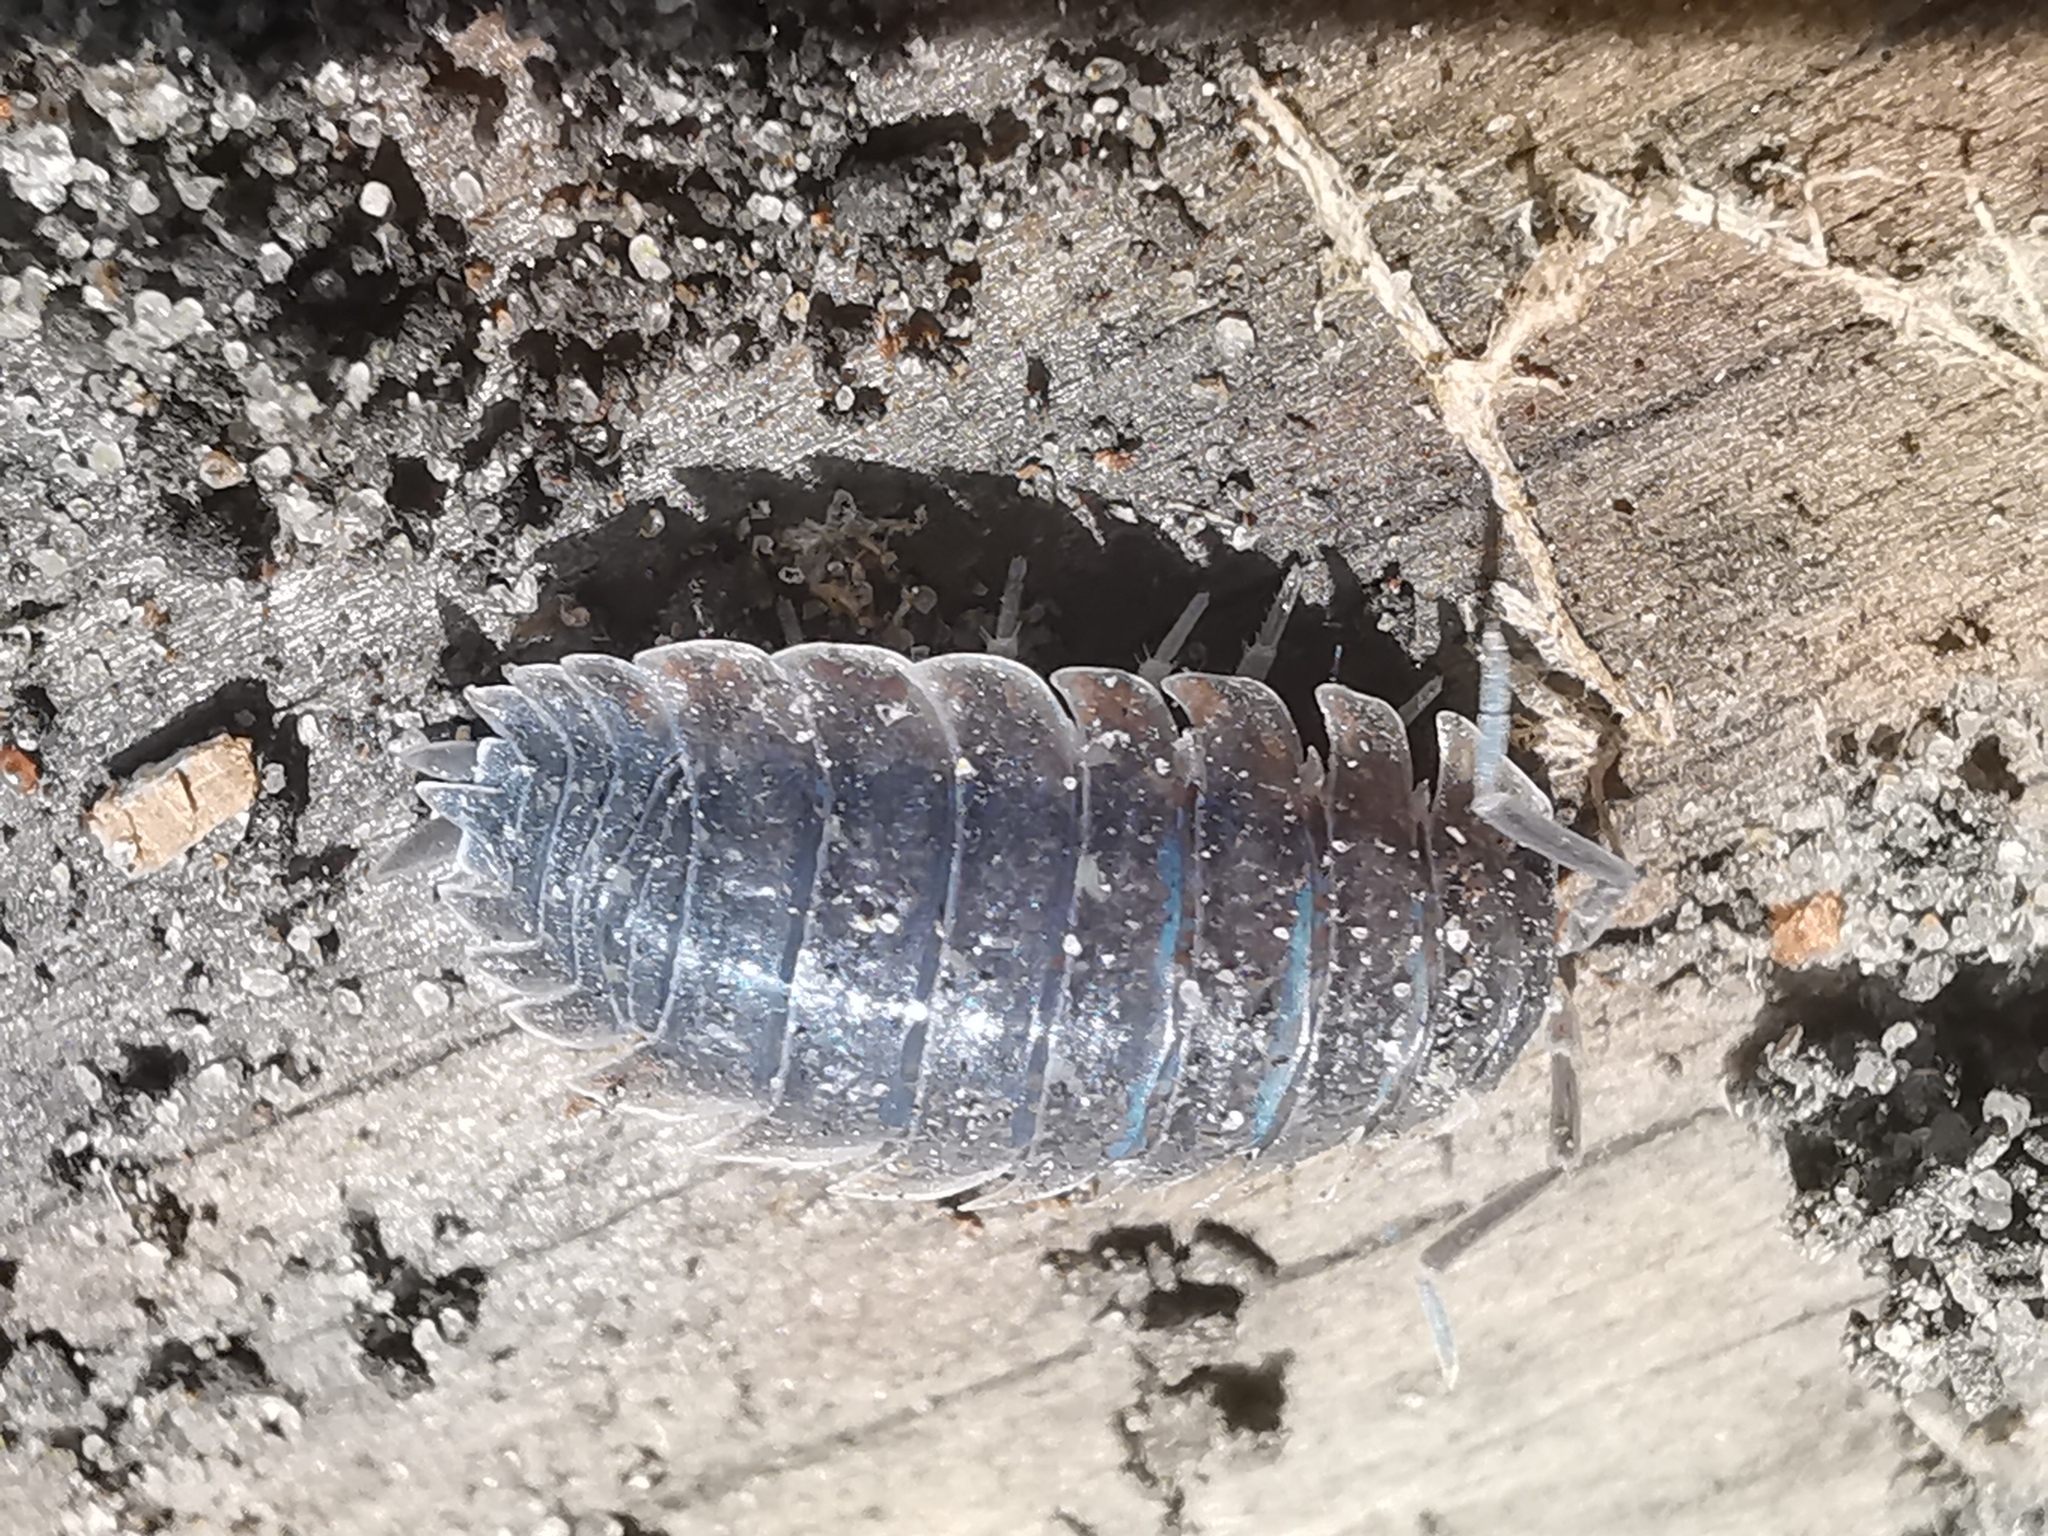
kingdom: Viruses
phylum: Nucleocytoviricota
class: Megaviricetes
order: Pimascovirales
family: Iridoviridae
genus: Iridovirus
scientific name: Iridovirus Invertebrate iridescent virus 31
